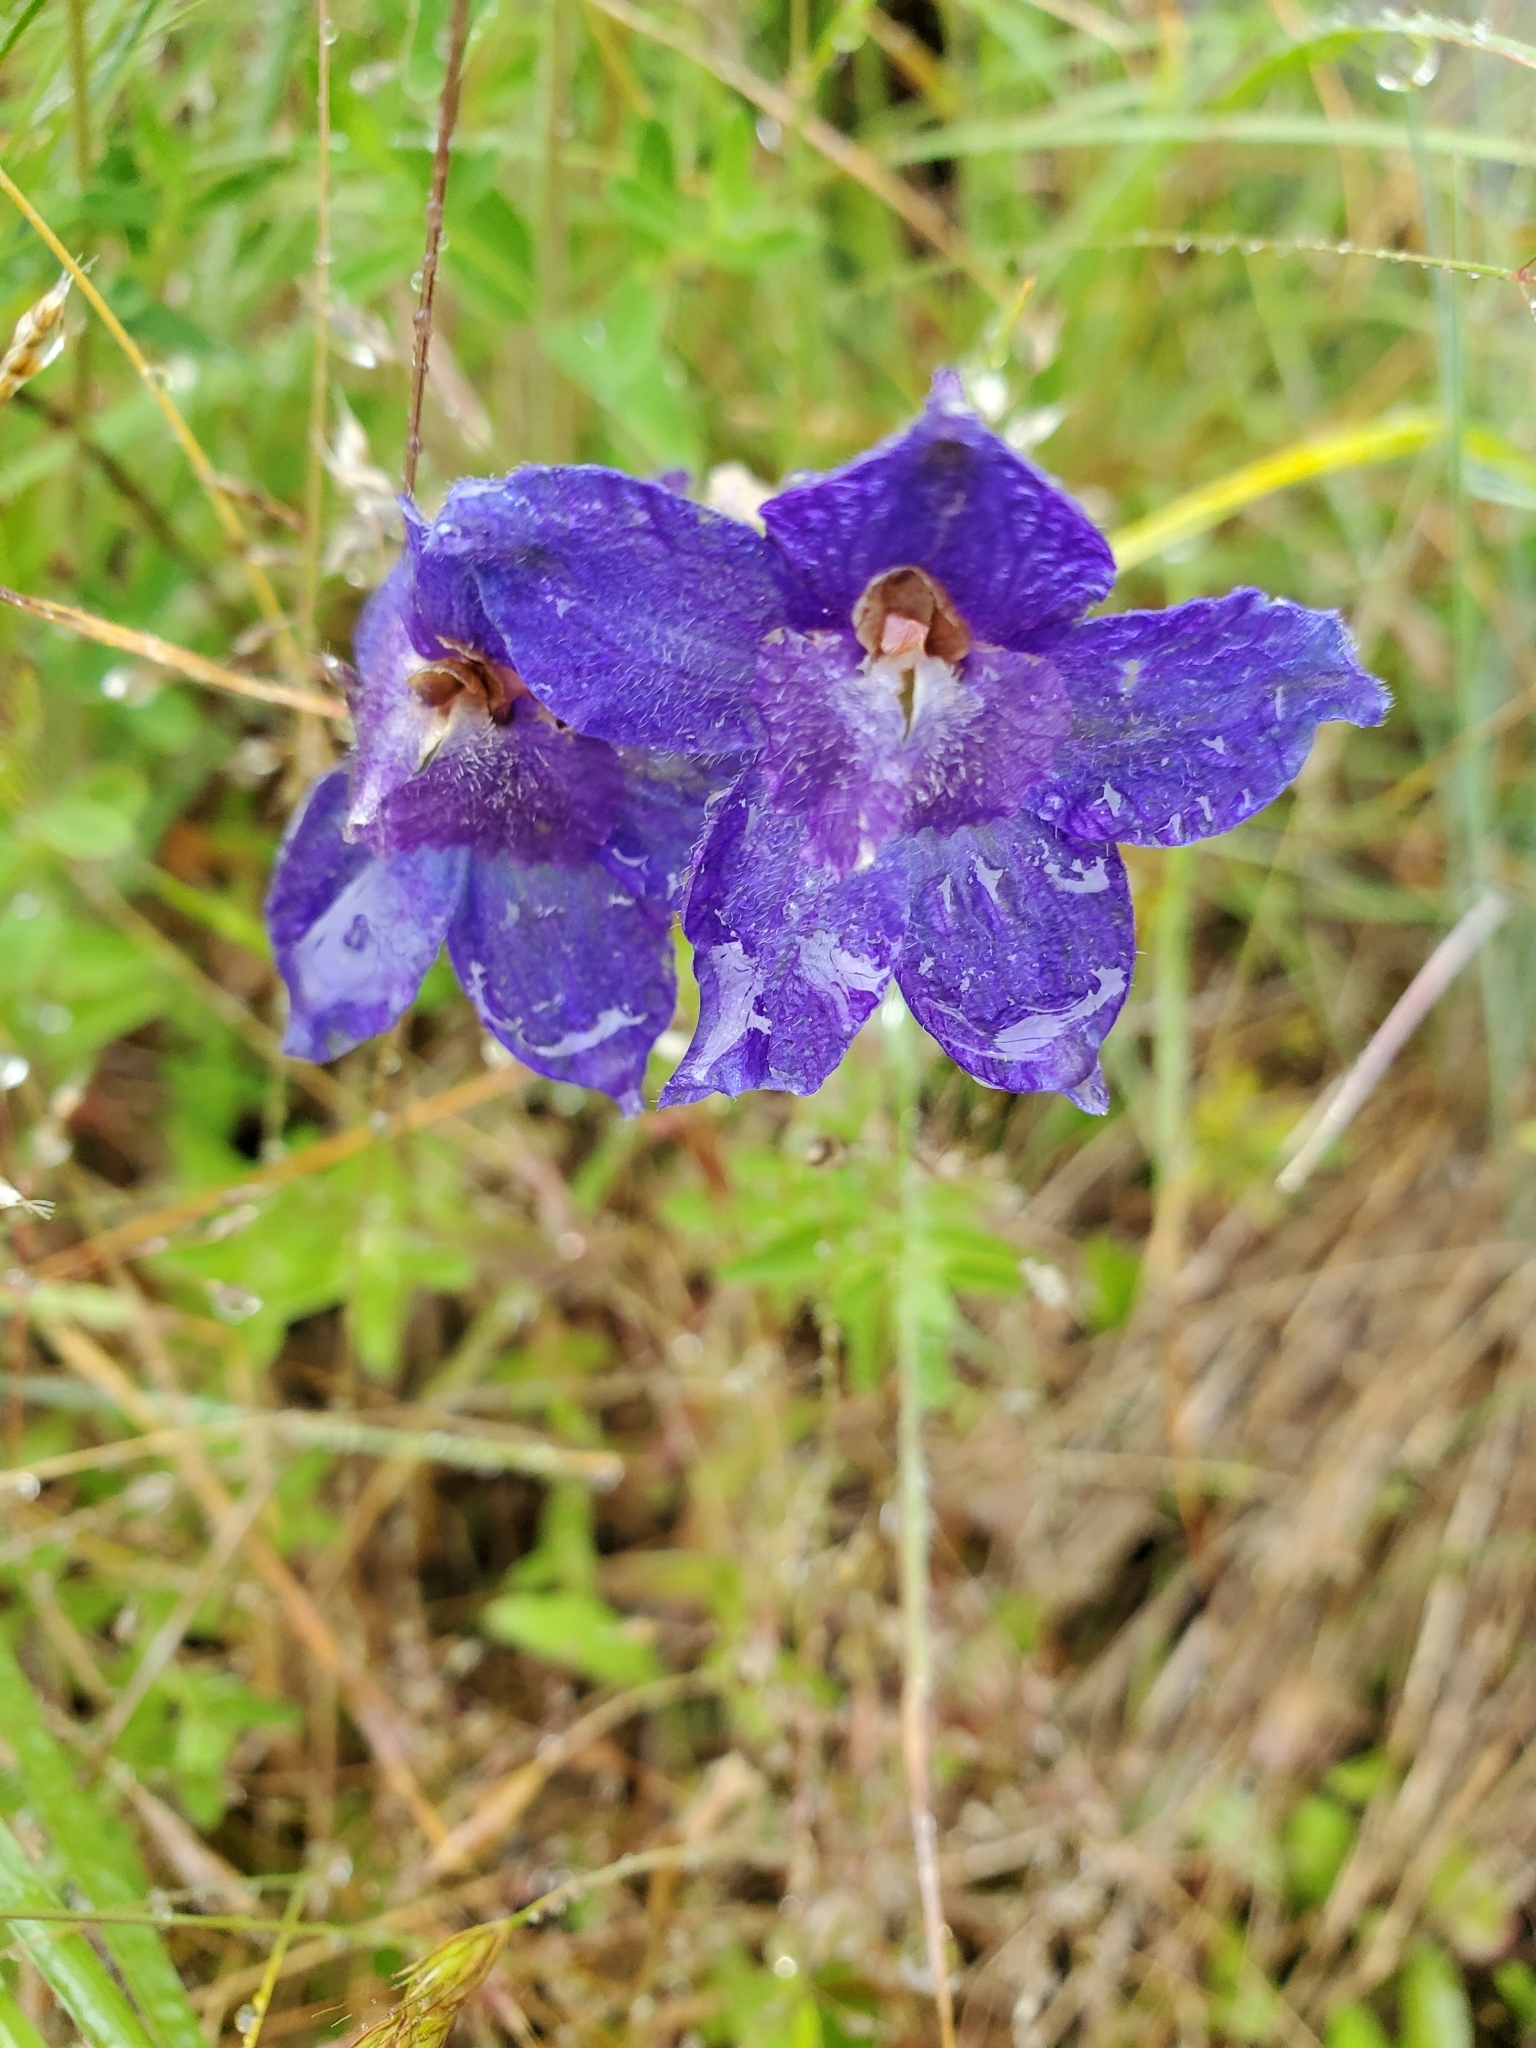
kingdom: Plantae
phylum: Tracheophyta
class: Magnoliopsida
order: Ranunculales
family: Ranunculaceae
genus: Delphinium
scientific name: Delphinium menziesii
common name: Menzies's larkspur
